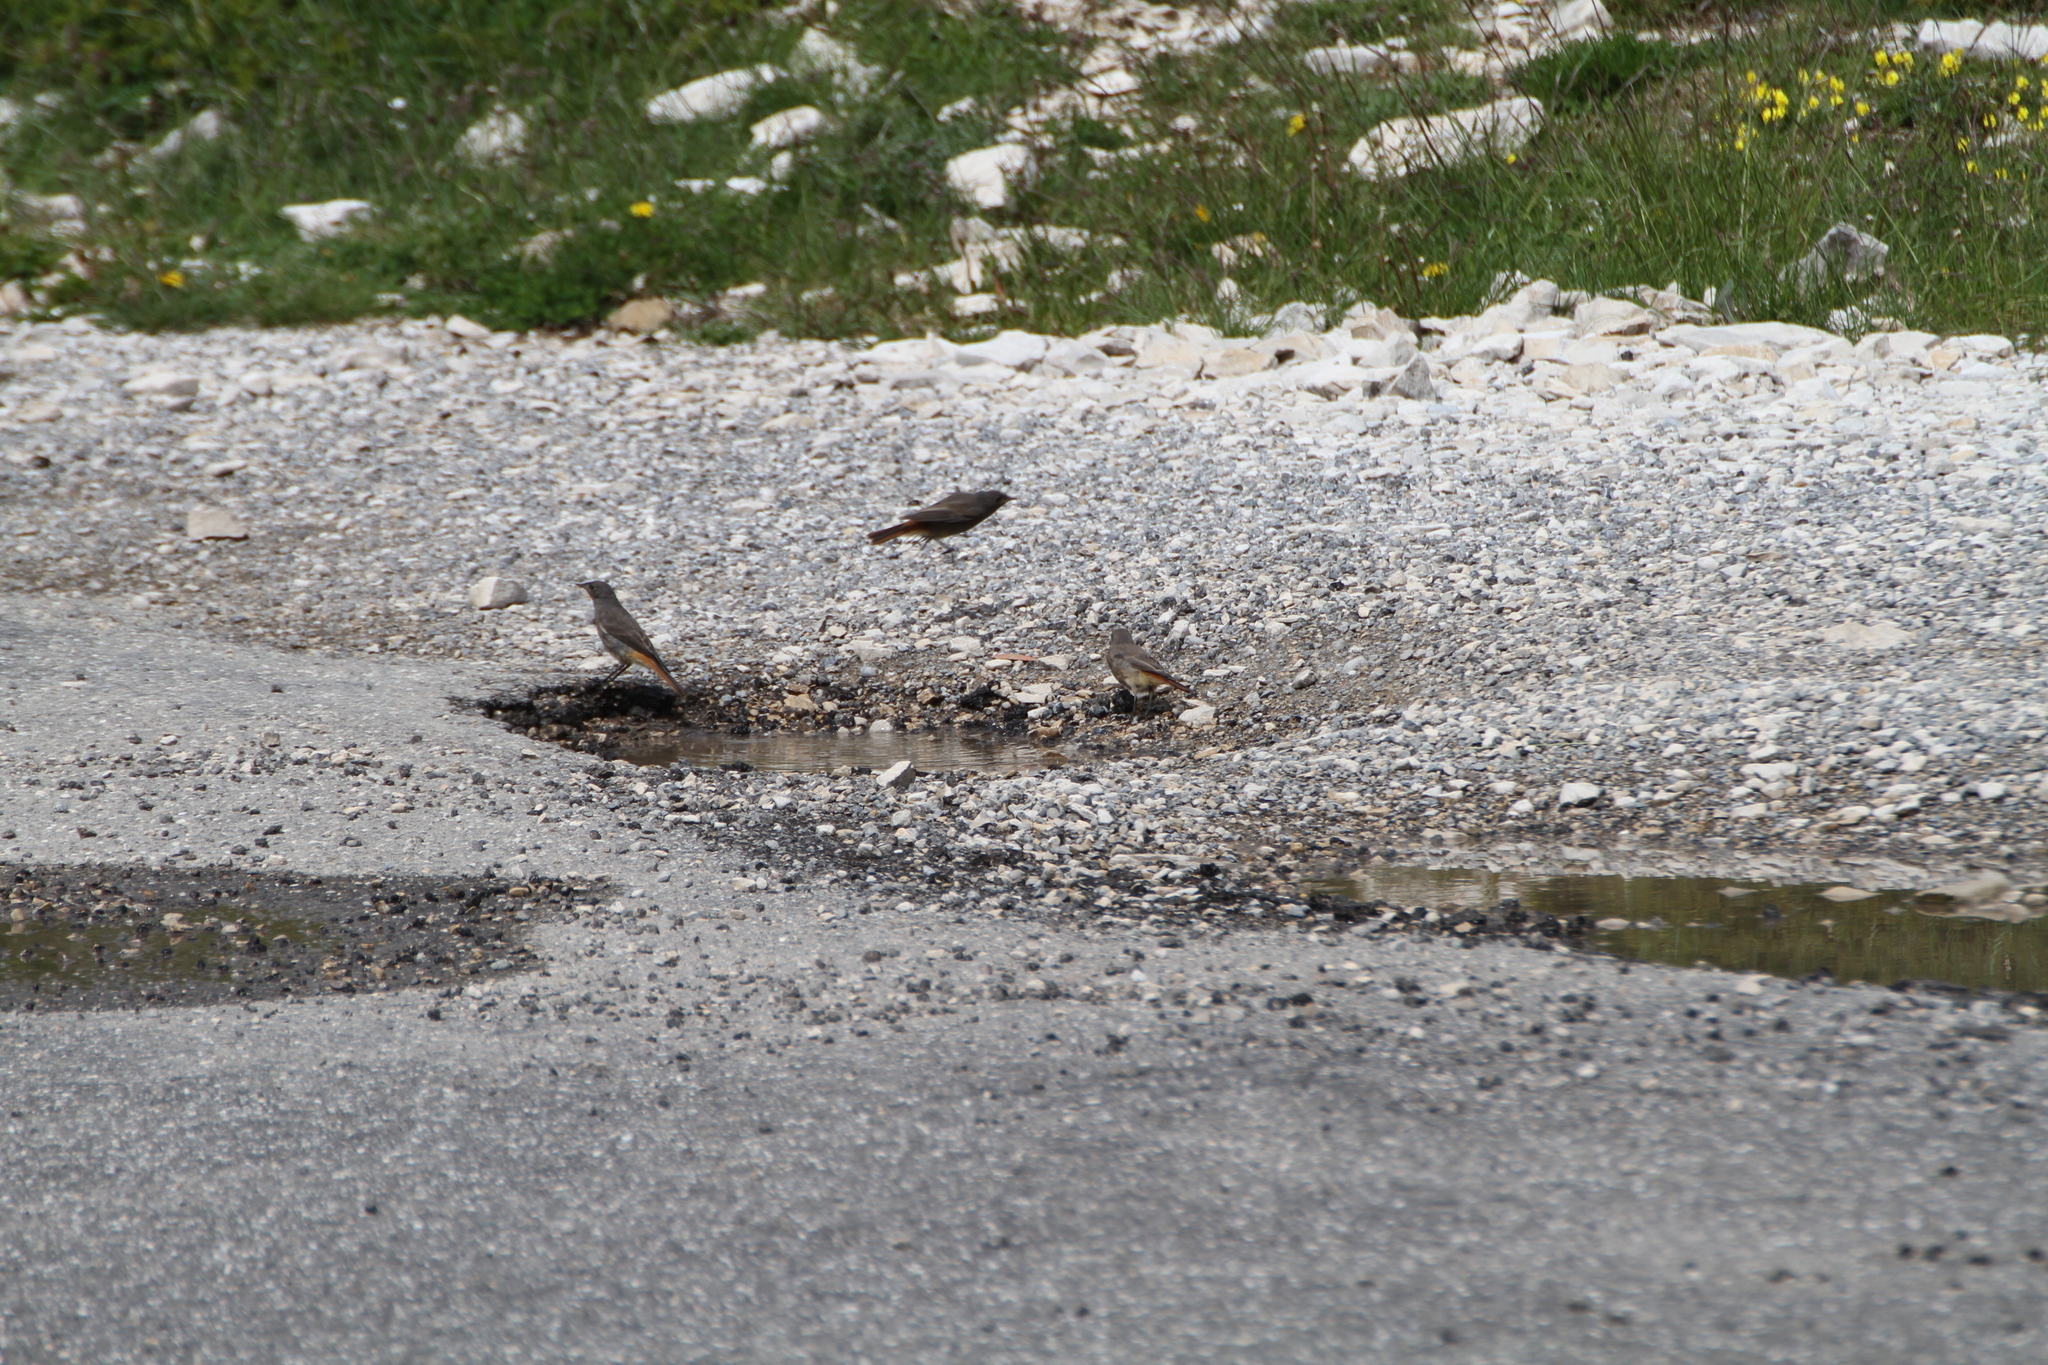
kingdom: Animalia
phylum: Chordata
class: Aves
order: Passeriformes
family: Muscicapidae
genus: Phoenicurus
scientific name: Phoenicurus ochruros
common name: Black redstart
